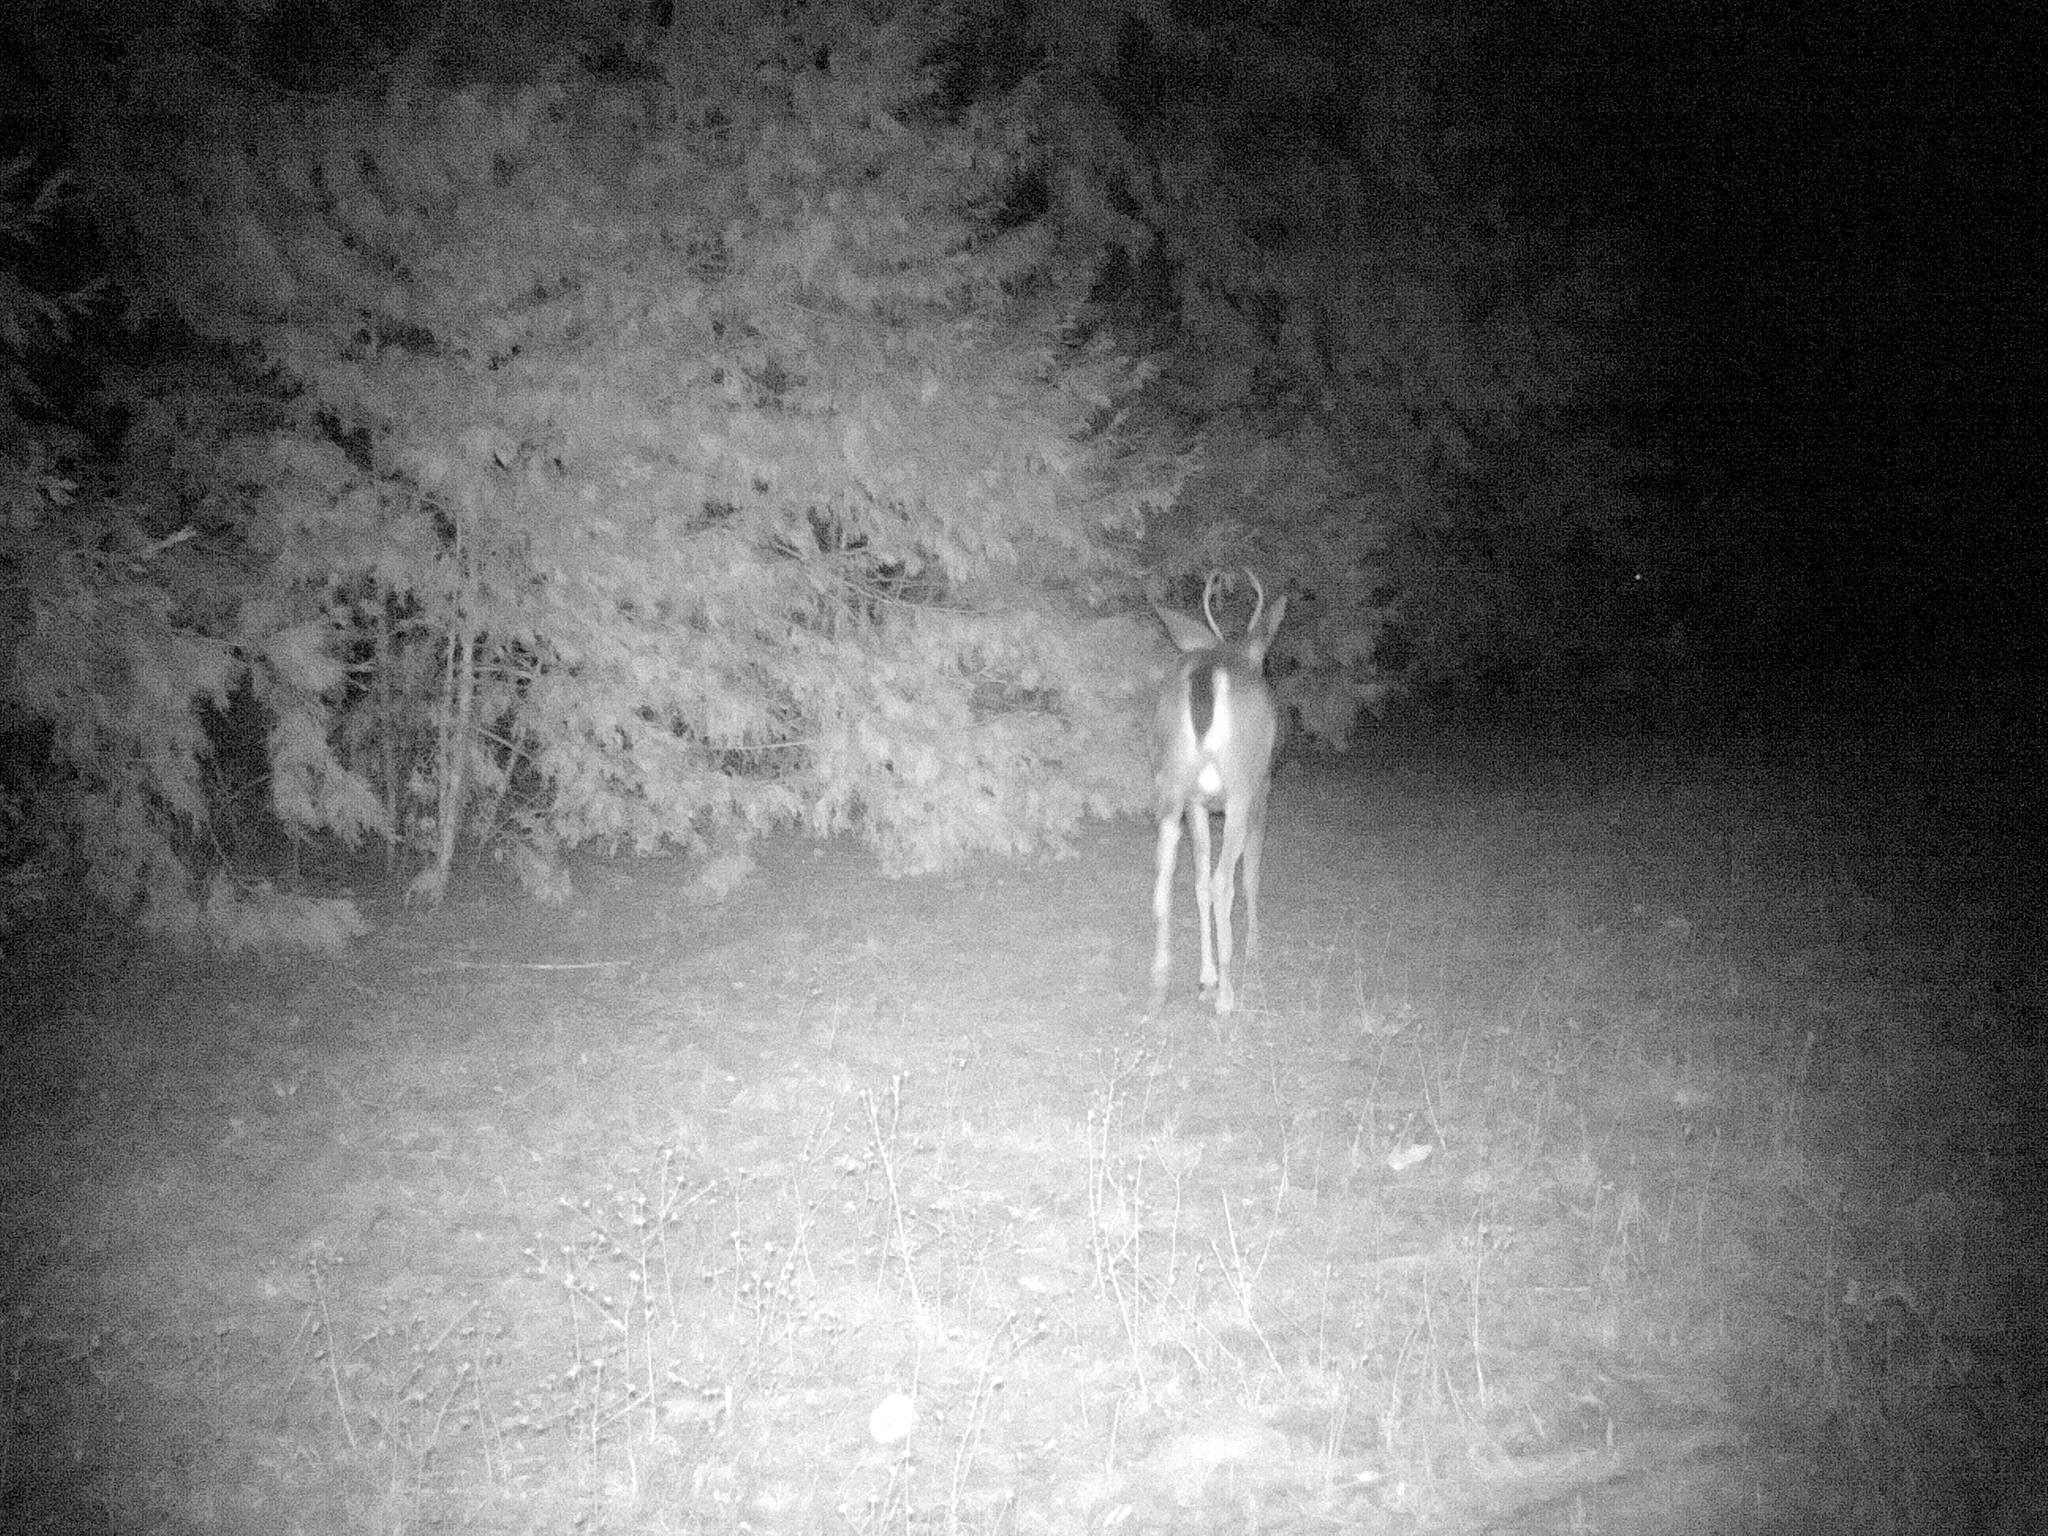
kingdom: Animalia
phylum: Chordata
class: Mammalia
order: Artiodactyla
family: Cervidae
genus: Odocoileus
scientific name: Odocoileus hemionus
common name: Mule deer
